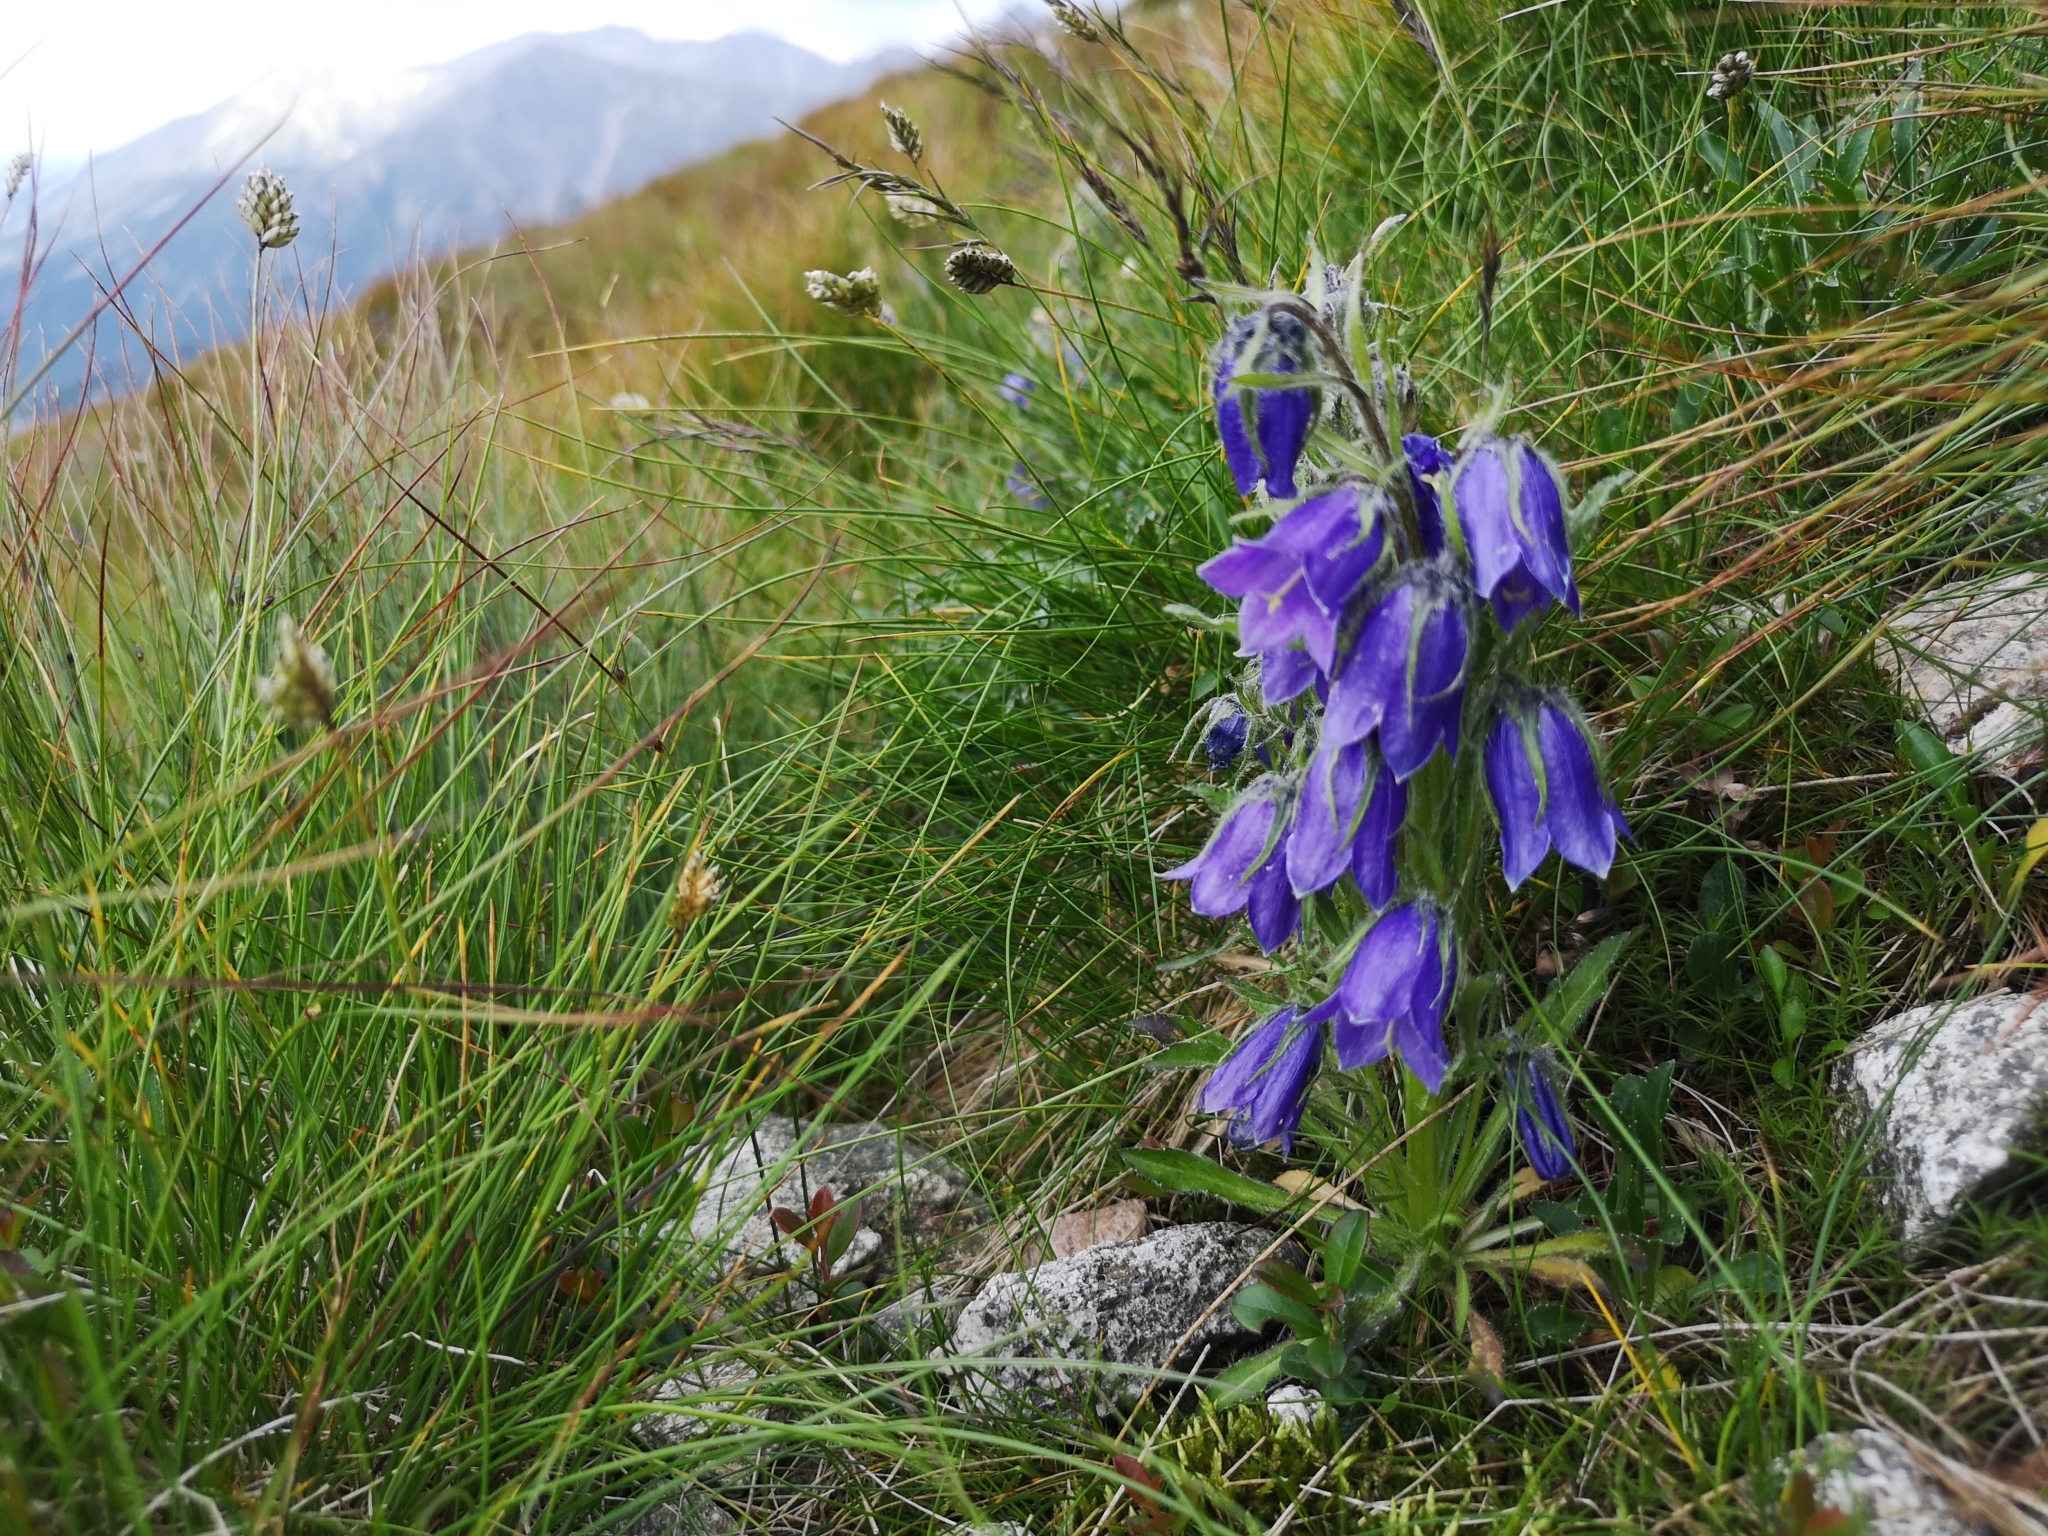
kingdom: Plantae
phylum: Tracheophyta
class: Magnoliopsida
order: Asterales
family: Campanulaceae
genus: Campanula
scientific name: Campanula alpina
